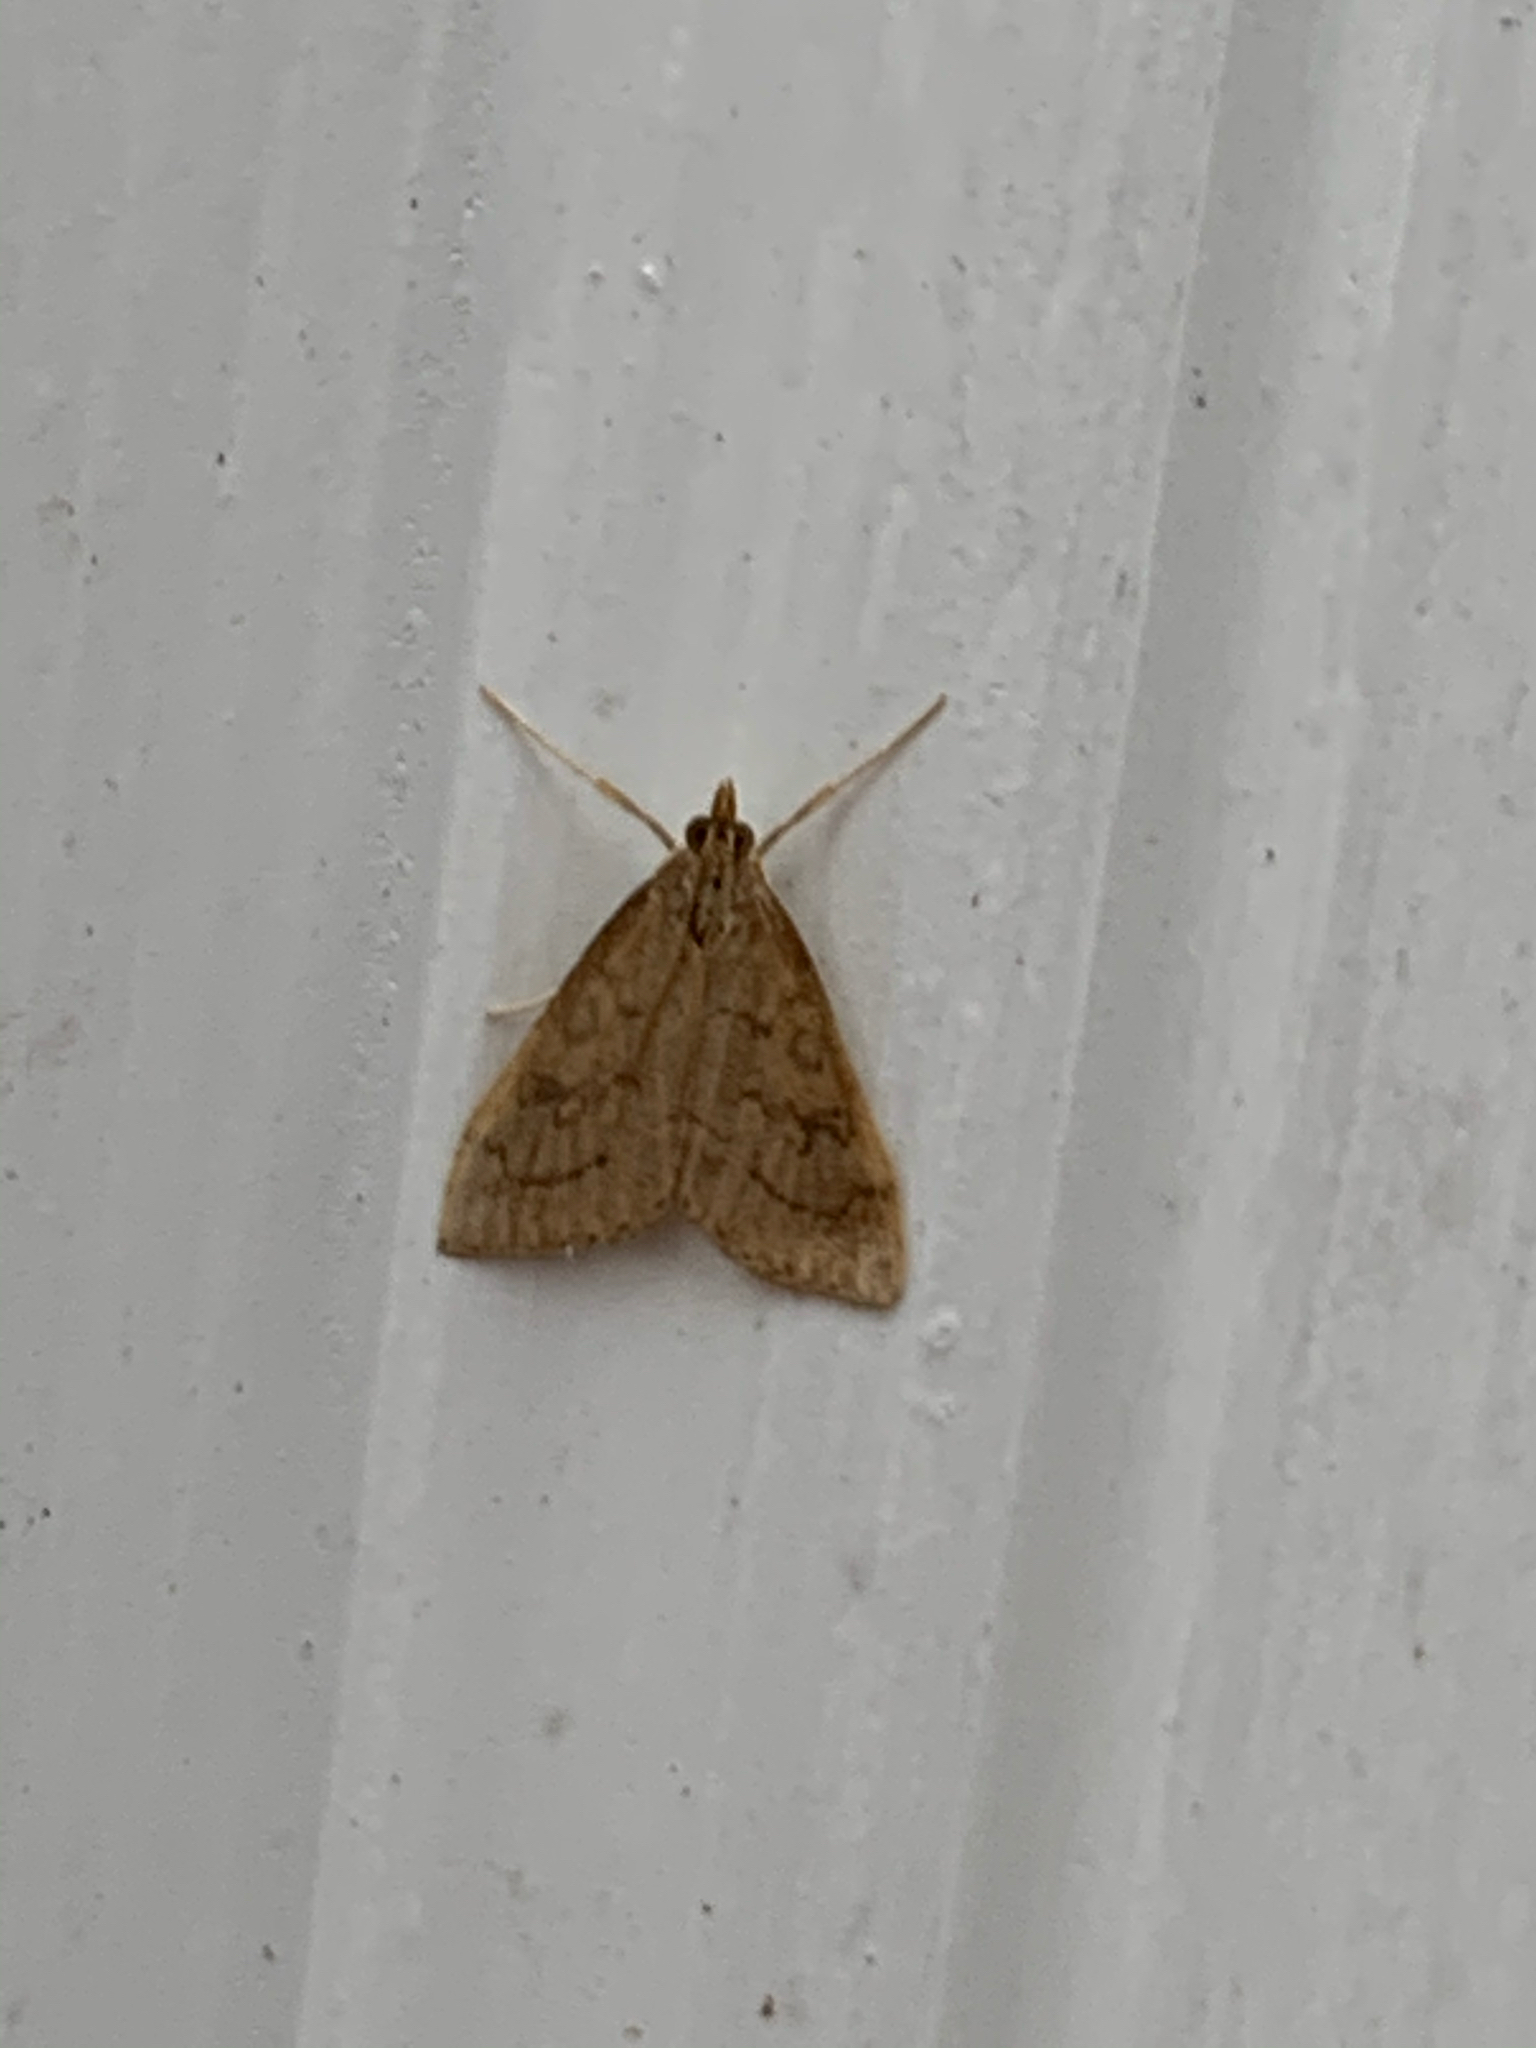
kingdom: Animalia
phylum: Arthropoda
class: Insecta
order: Lepidoptera
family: Crambidae
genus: Udea
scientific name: Udea rubigalis
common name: Celery leaftier moth
